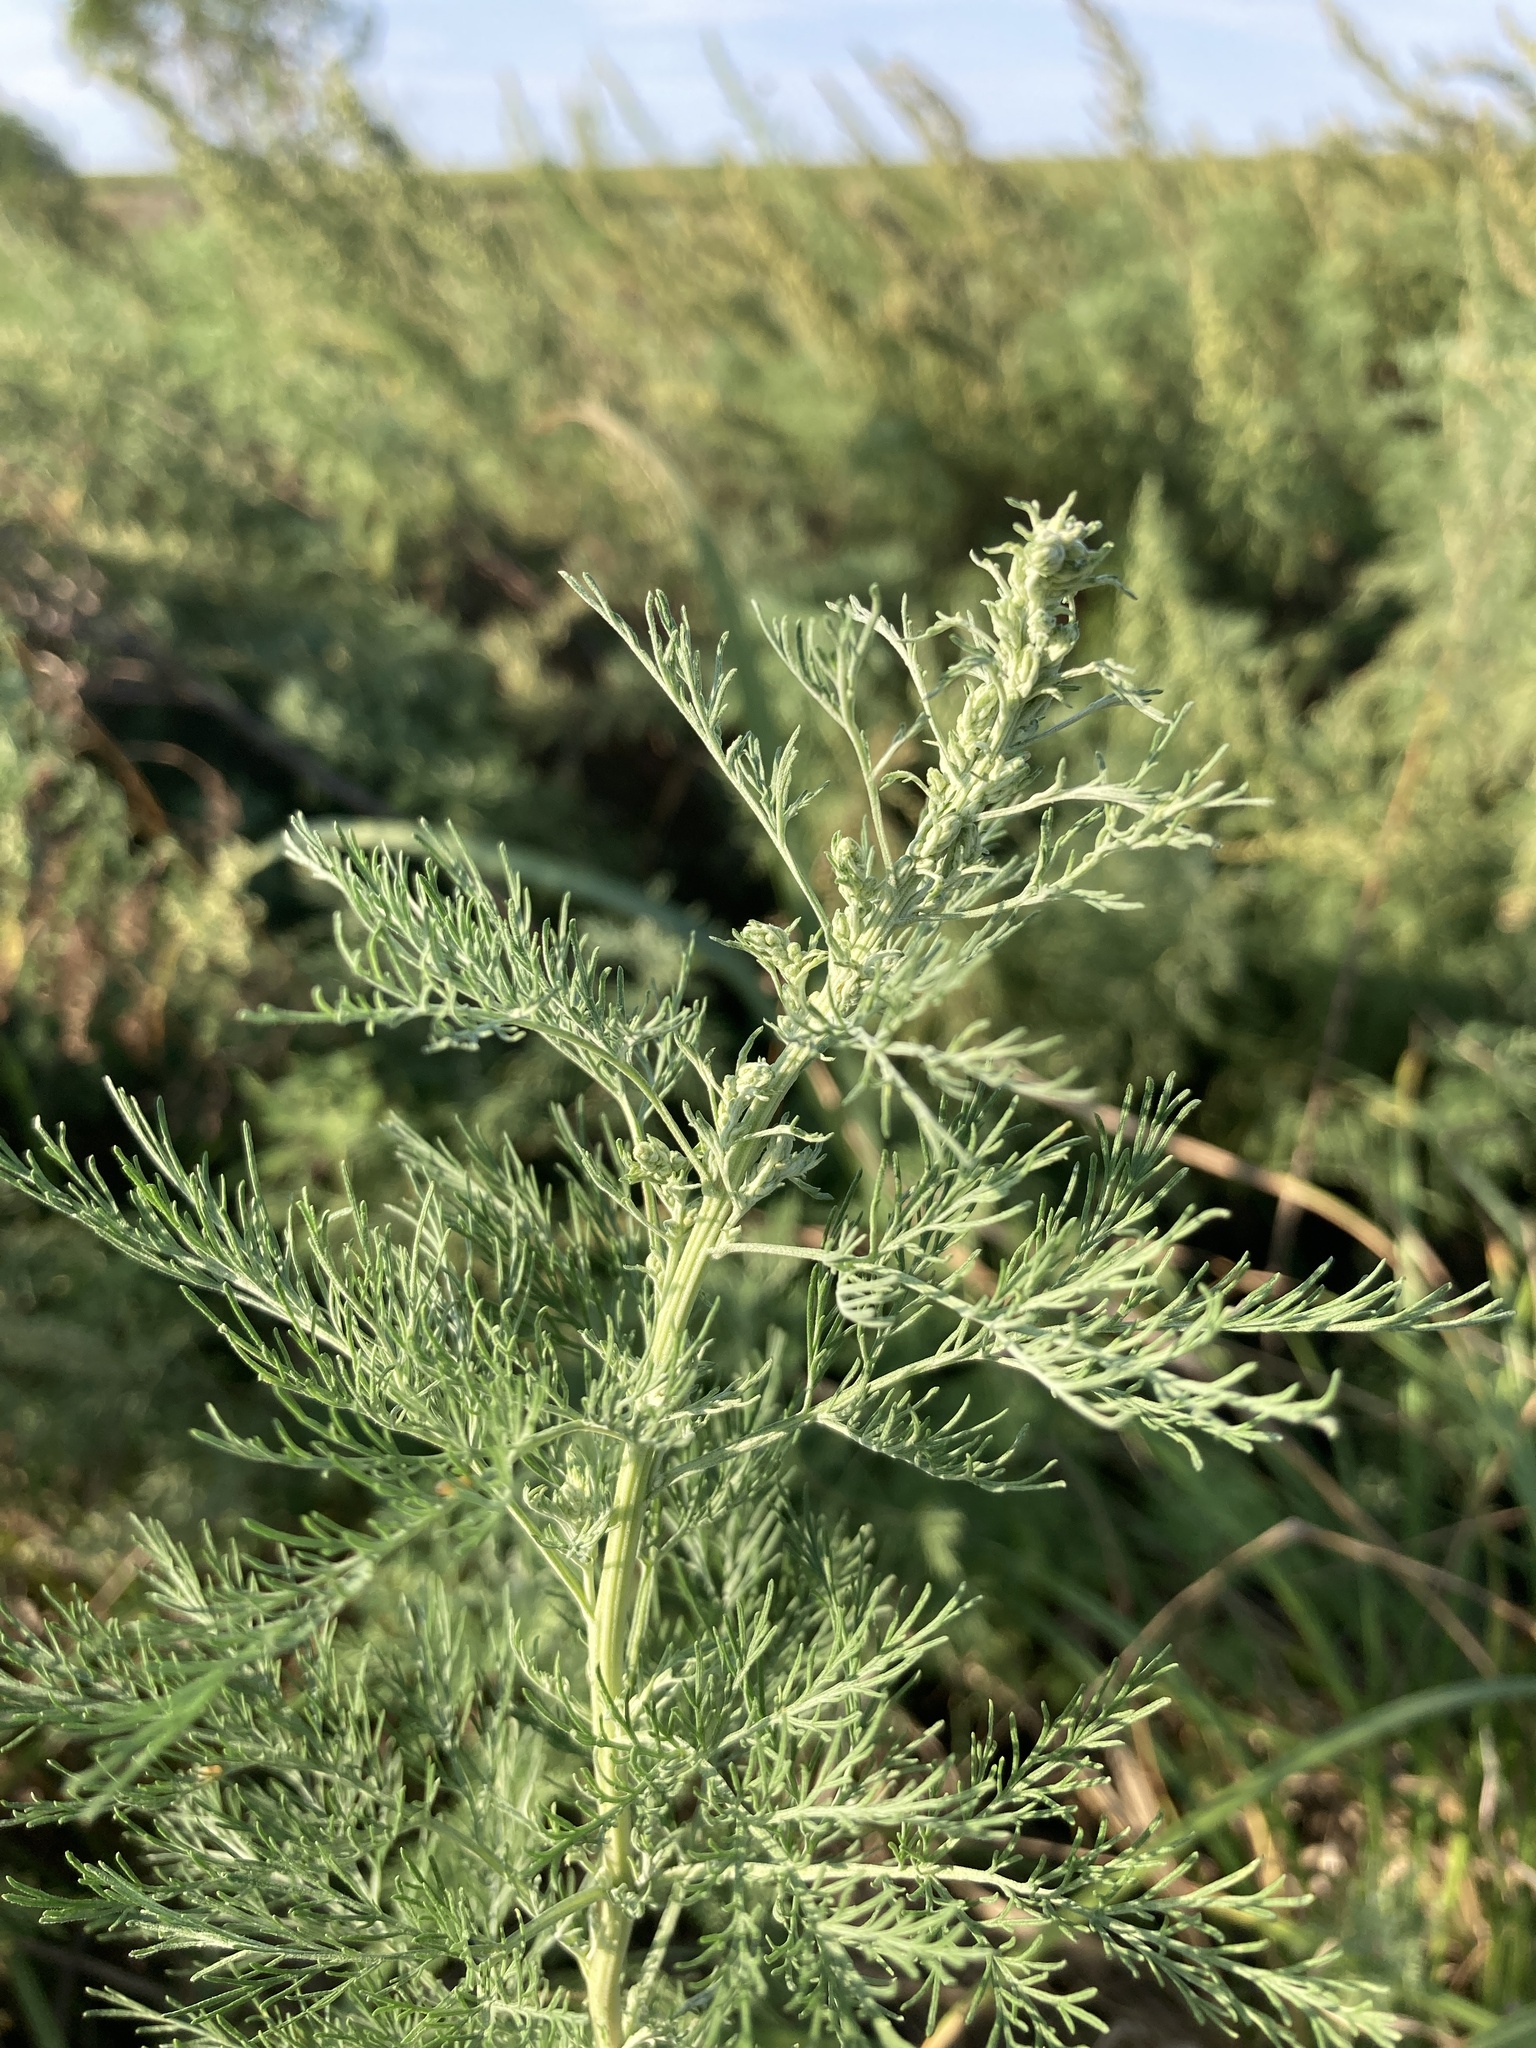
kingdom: Plantae
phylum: Tracheophyta
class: Magnoliopsida
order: Asterales
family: Asteraceae
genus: Artemisia
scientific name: Artemisia abrotanum
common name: Southernwood
